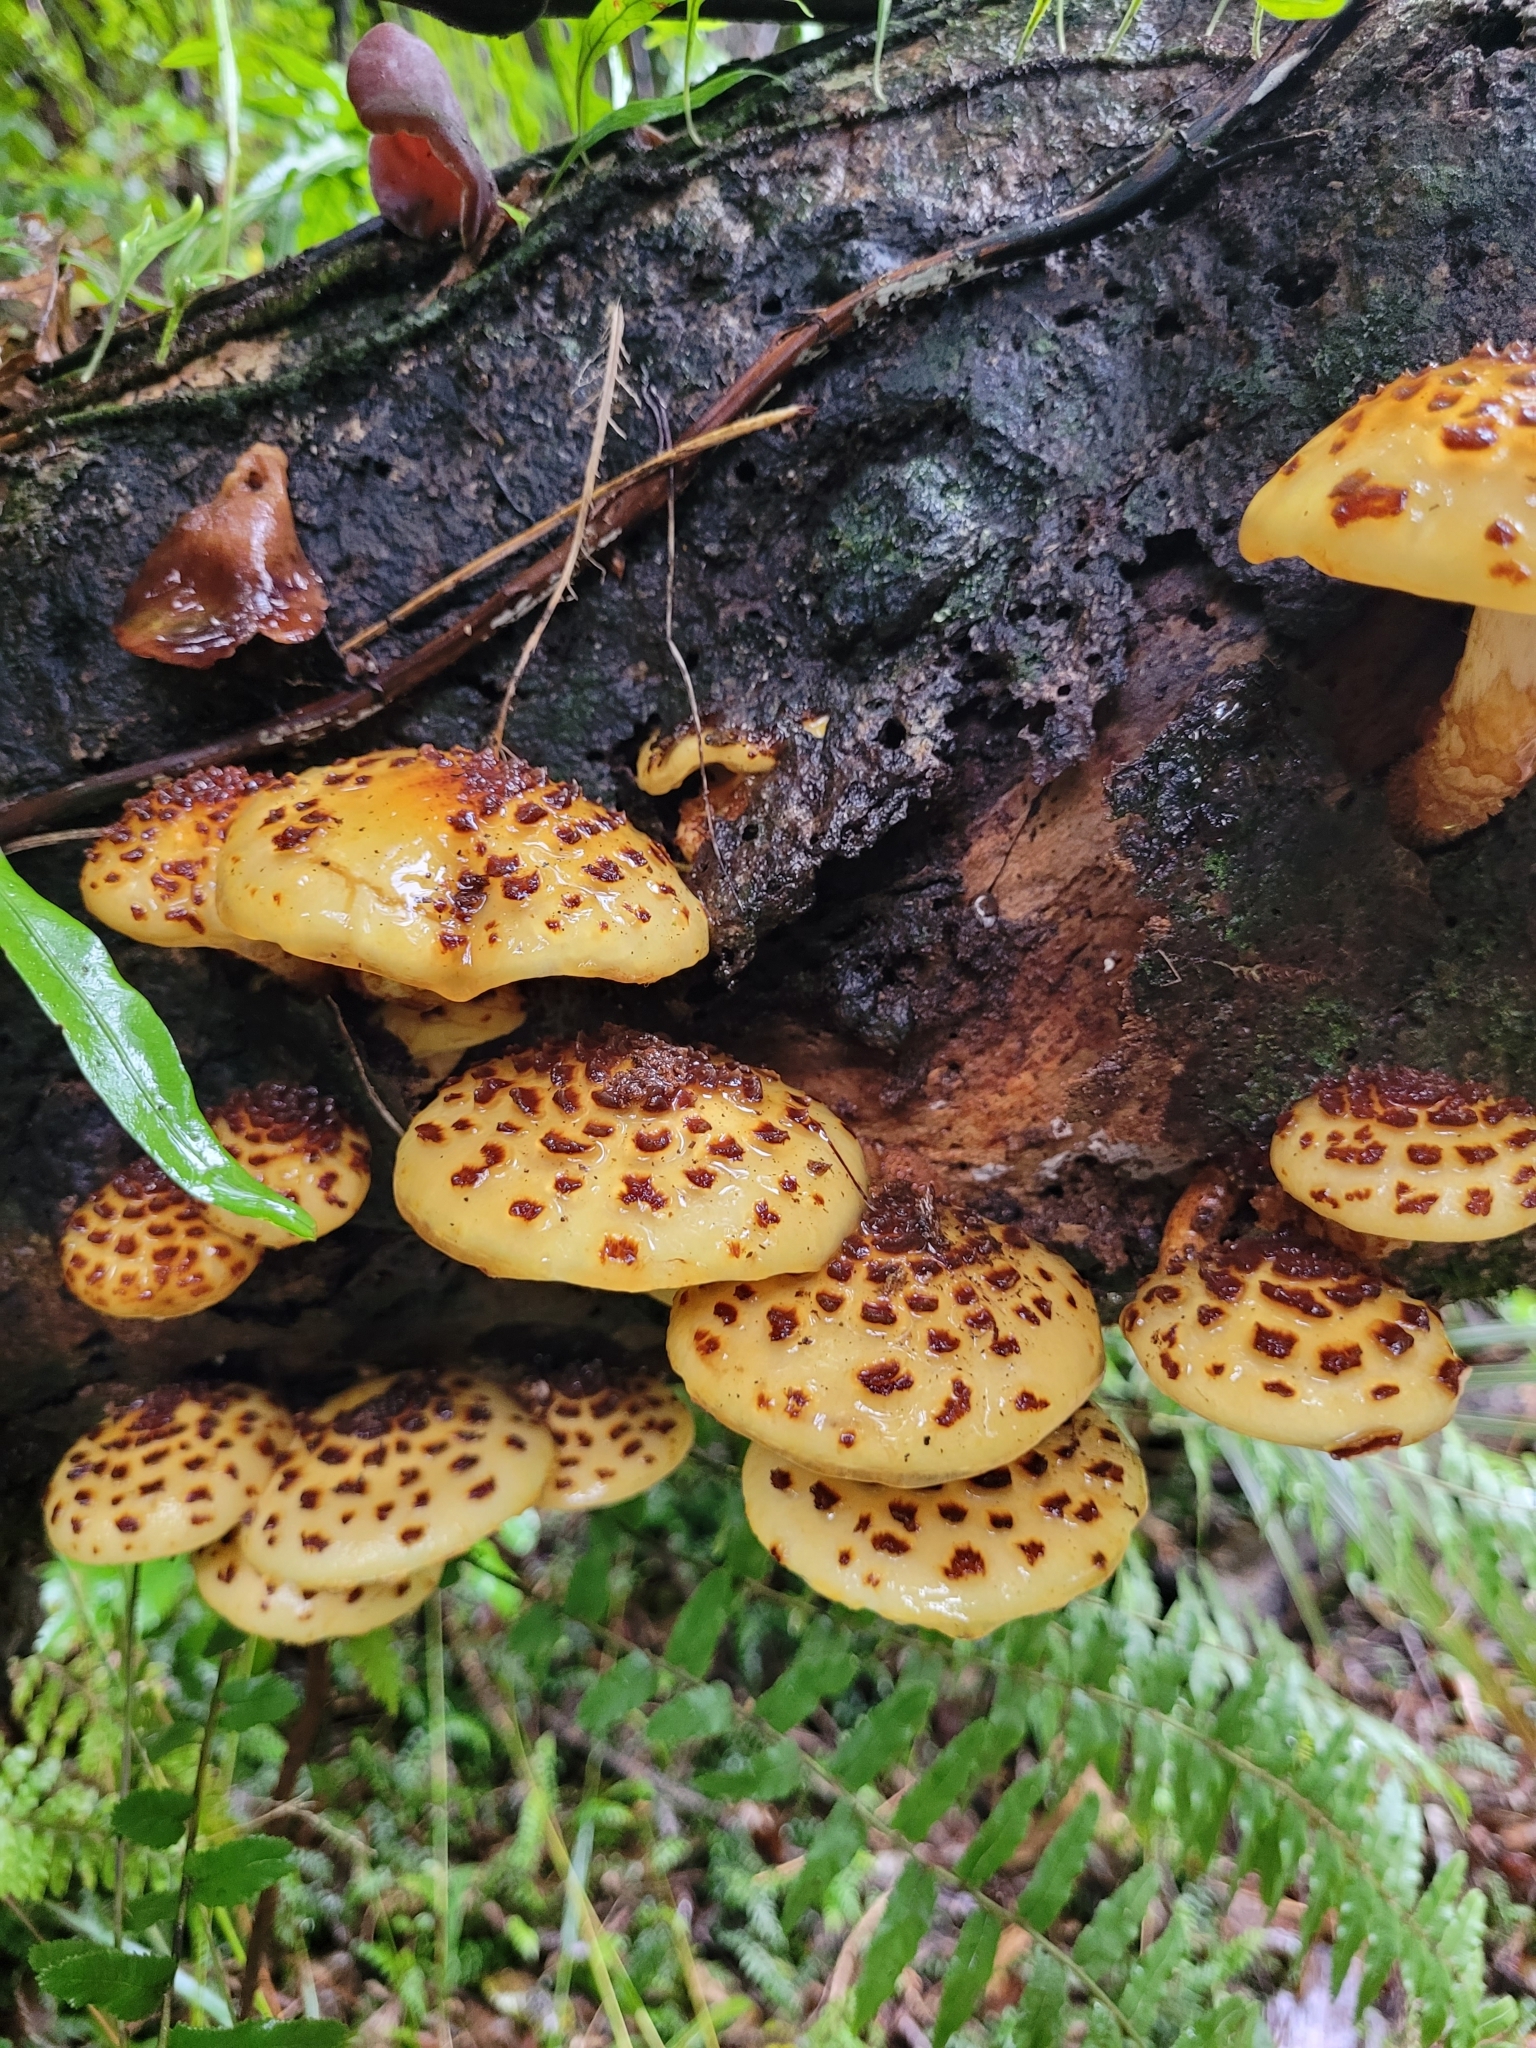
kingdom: Fungi
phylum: Basidiomycota
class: Agaricomycetes
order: Agaricales
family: Strophariaceae
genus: Pholiota
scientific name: Pholiota glutinosa
